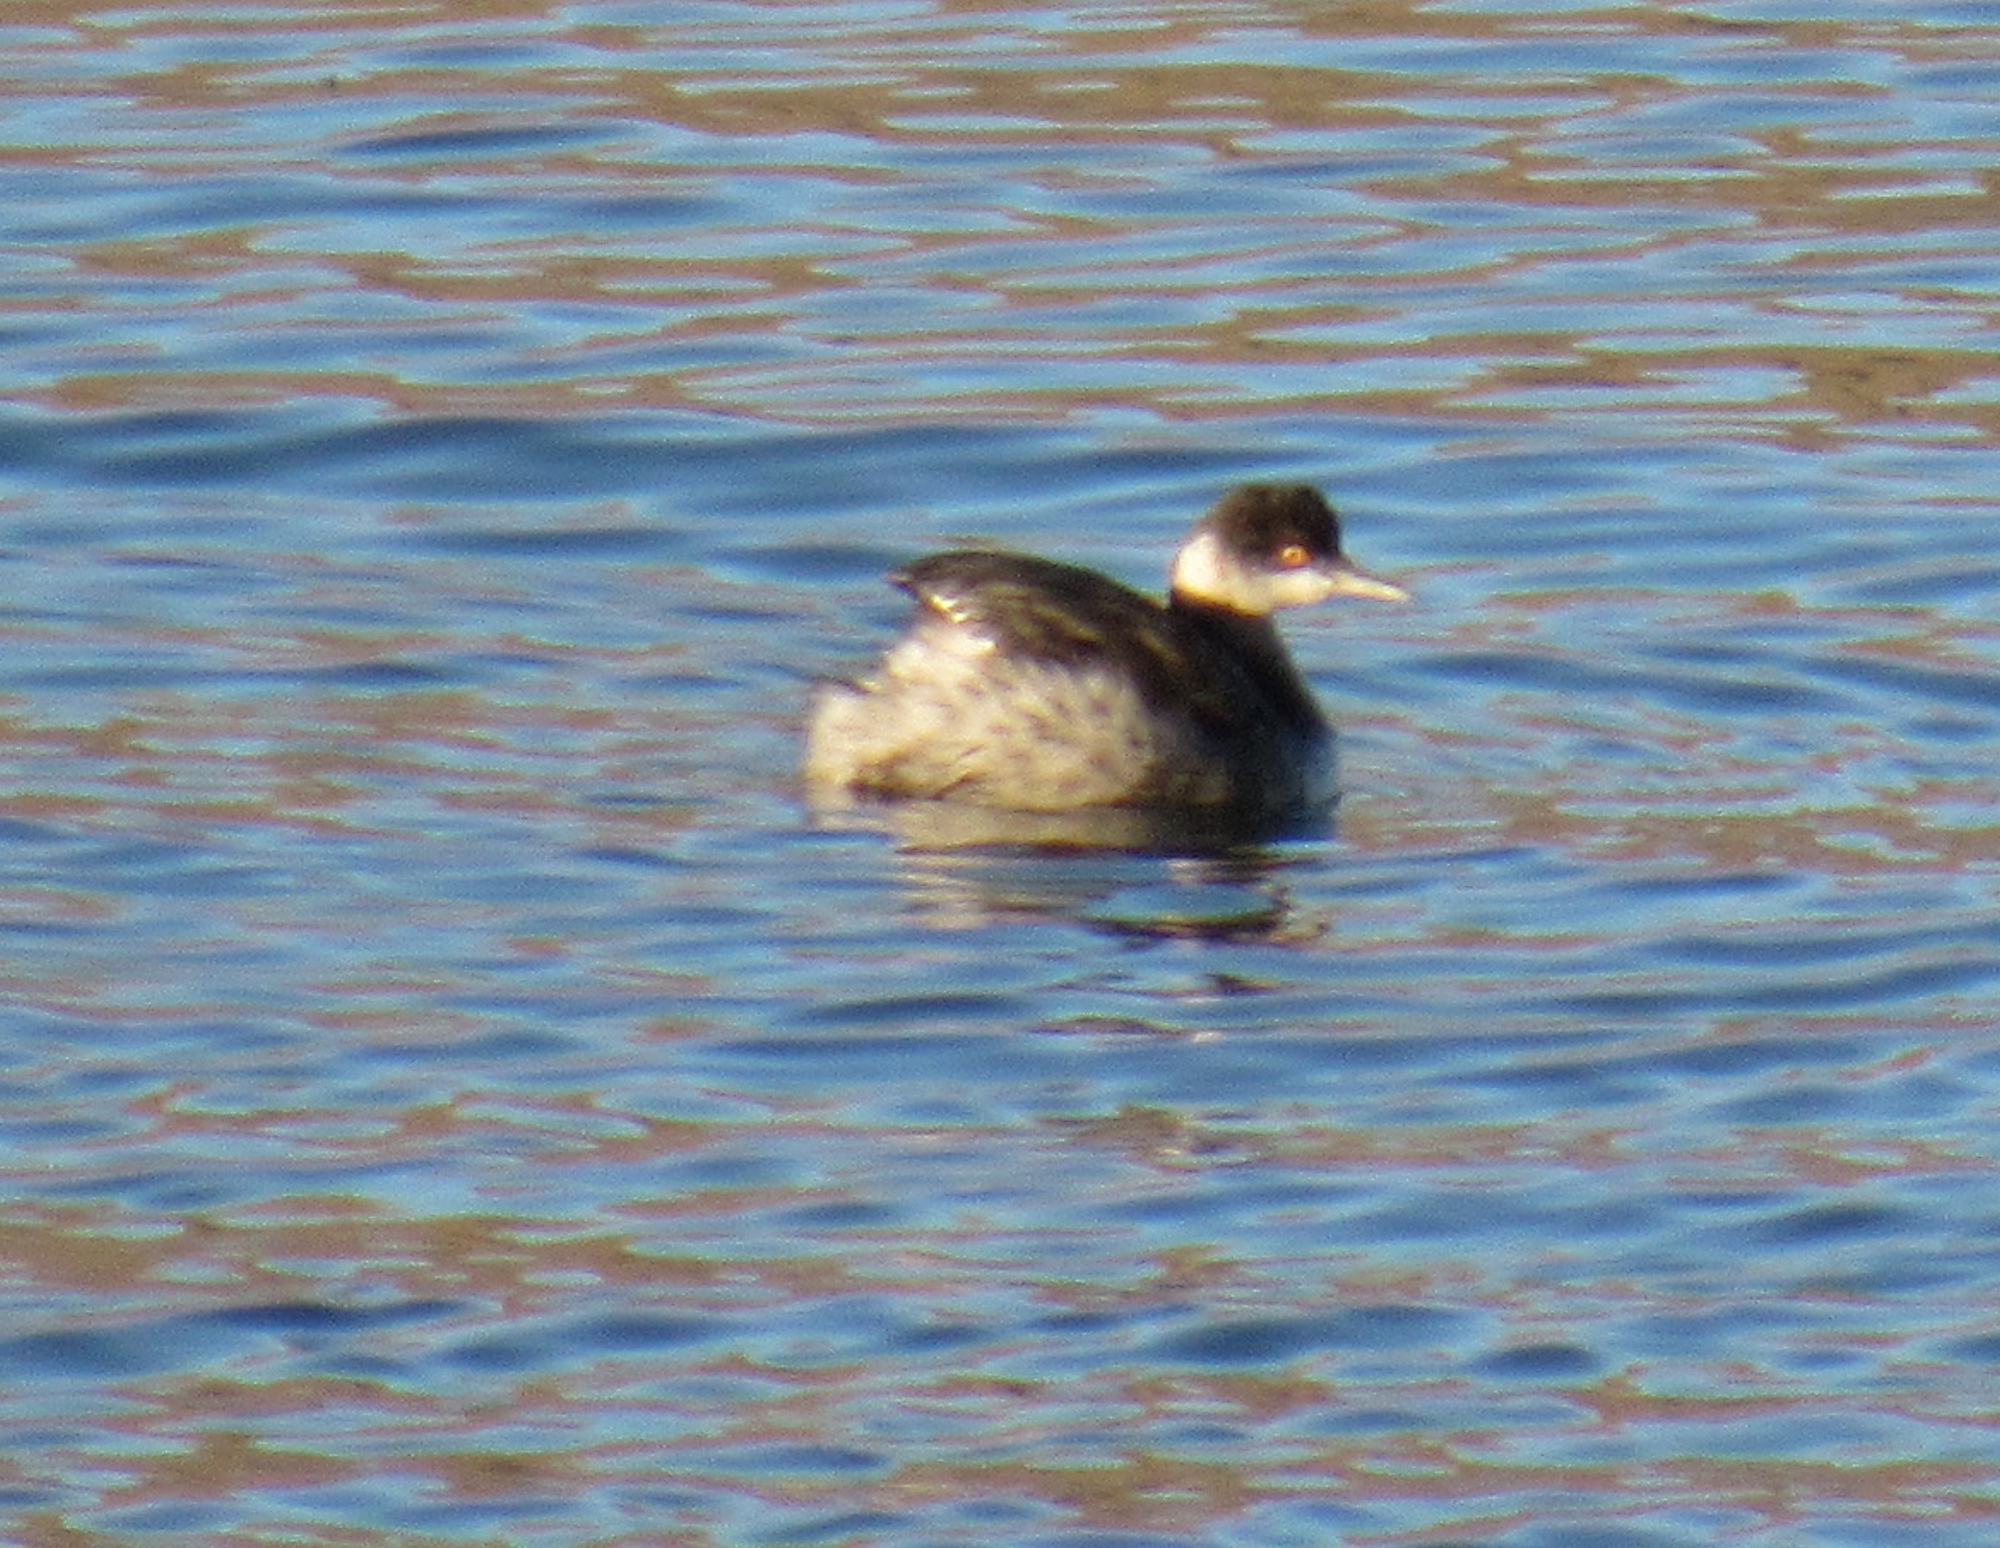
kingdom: Animalia
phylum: Chordata
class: Aves
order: Podicipediformes
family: Podicipedidae
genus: Podiceps
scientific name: Podiceps nigricollis
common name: Black-necked grebe
